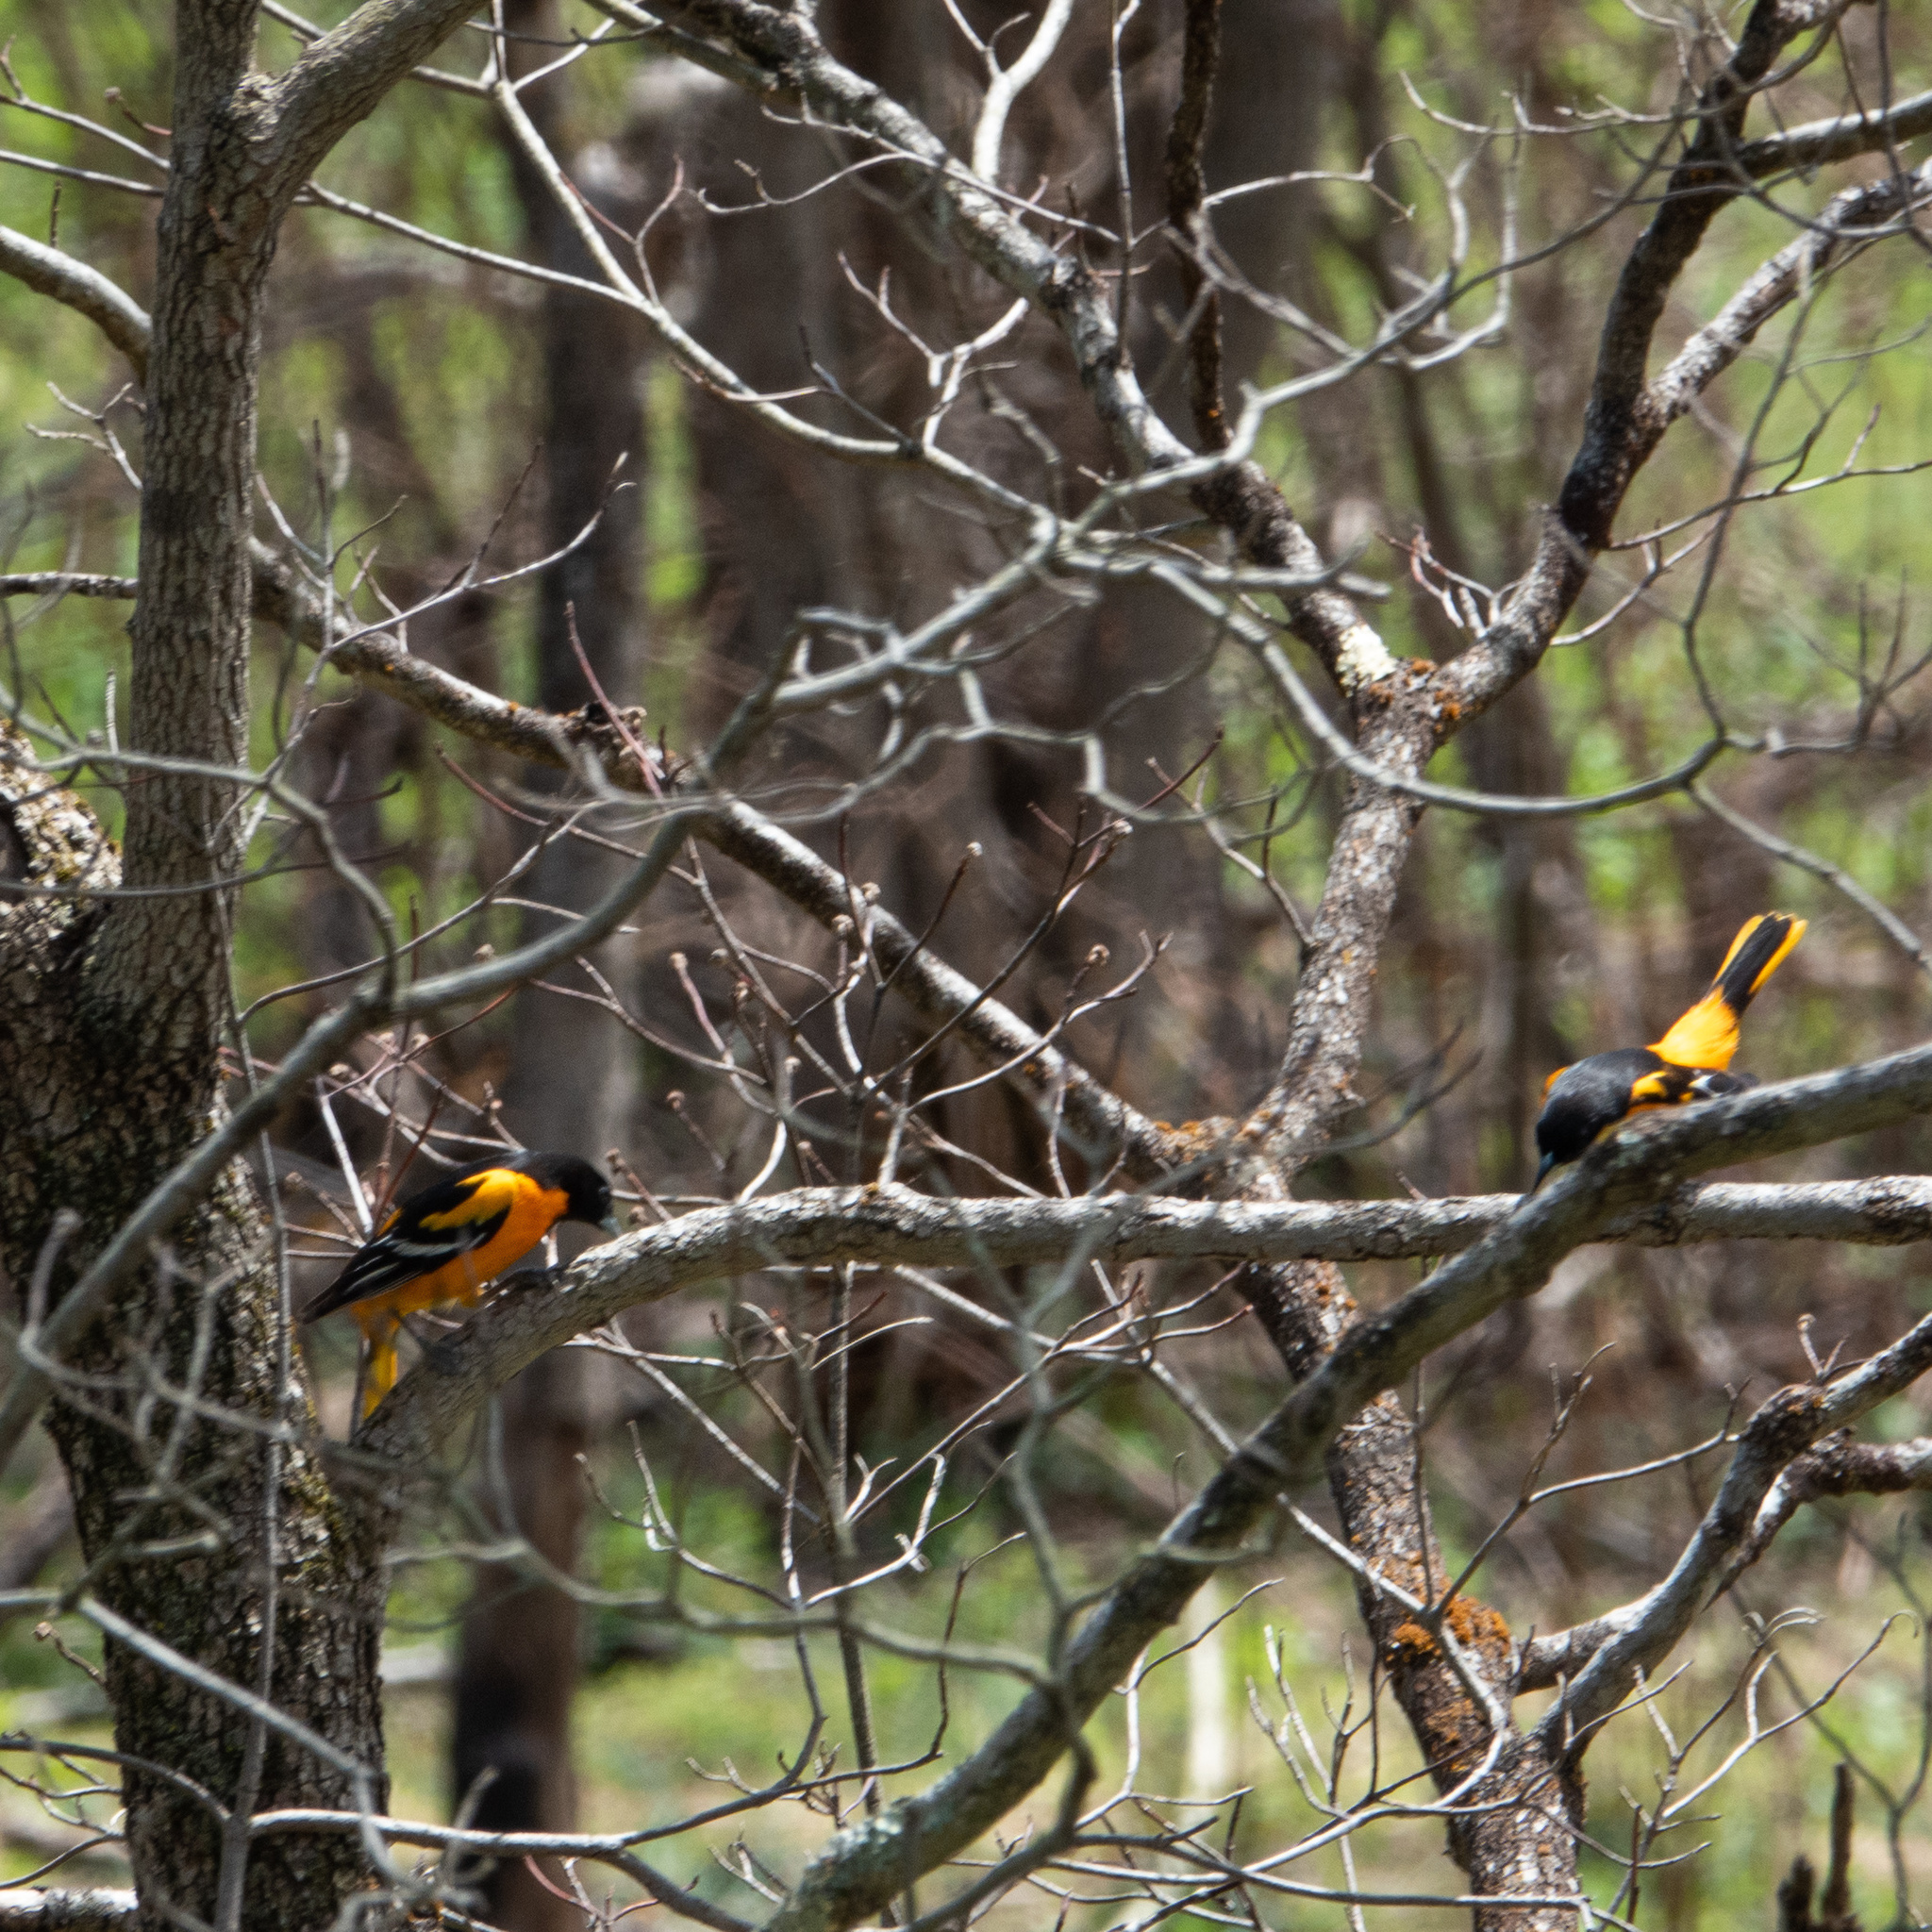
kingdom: Animalia
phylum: Chordata
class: Aves
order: Passeriformes
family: Icteridae
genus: Icterus
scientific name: Icterus galbula
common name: Baltimore oriole
